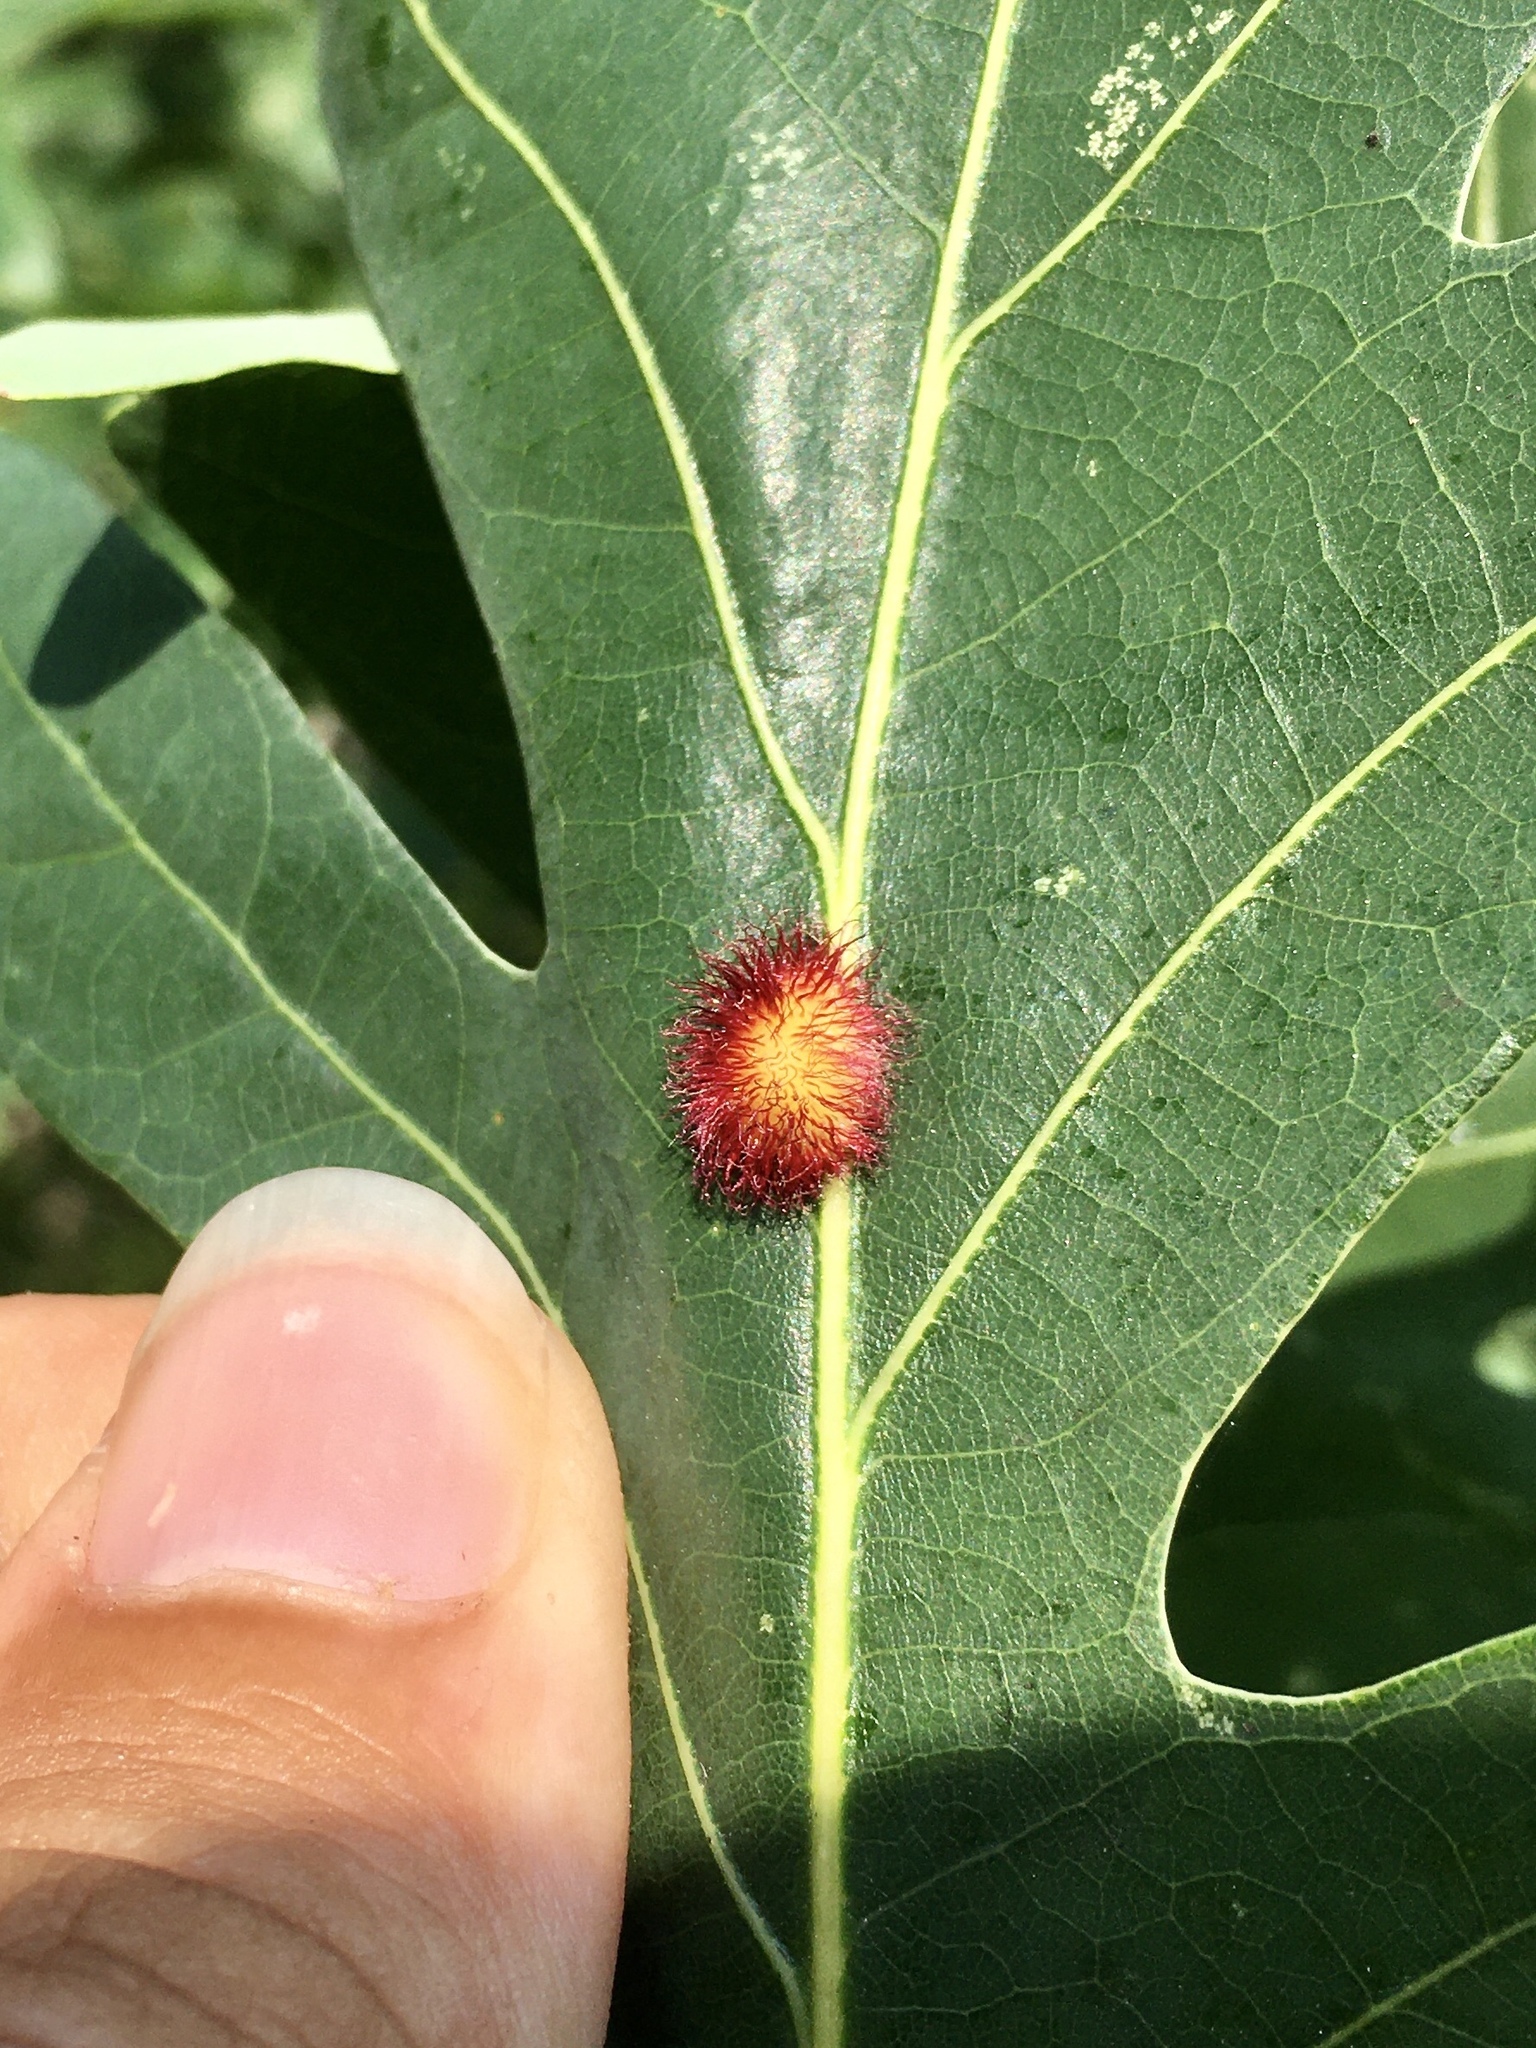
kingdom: Animalia
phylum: Arthropoda
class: Insecta
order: Hymenoptera
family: Cynipidae
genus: Acraspis
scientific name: Acraspis erinacei
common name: Hedgehog gall wasp
